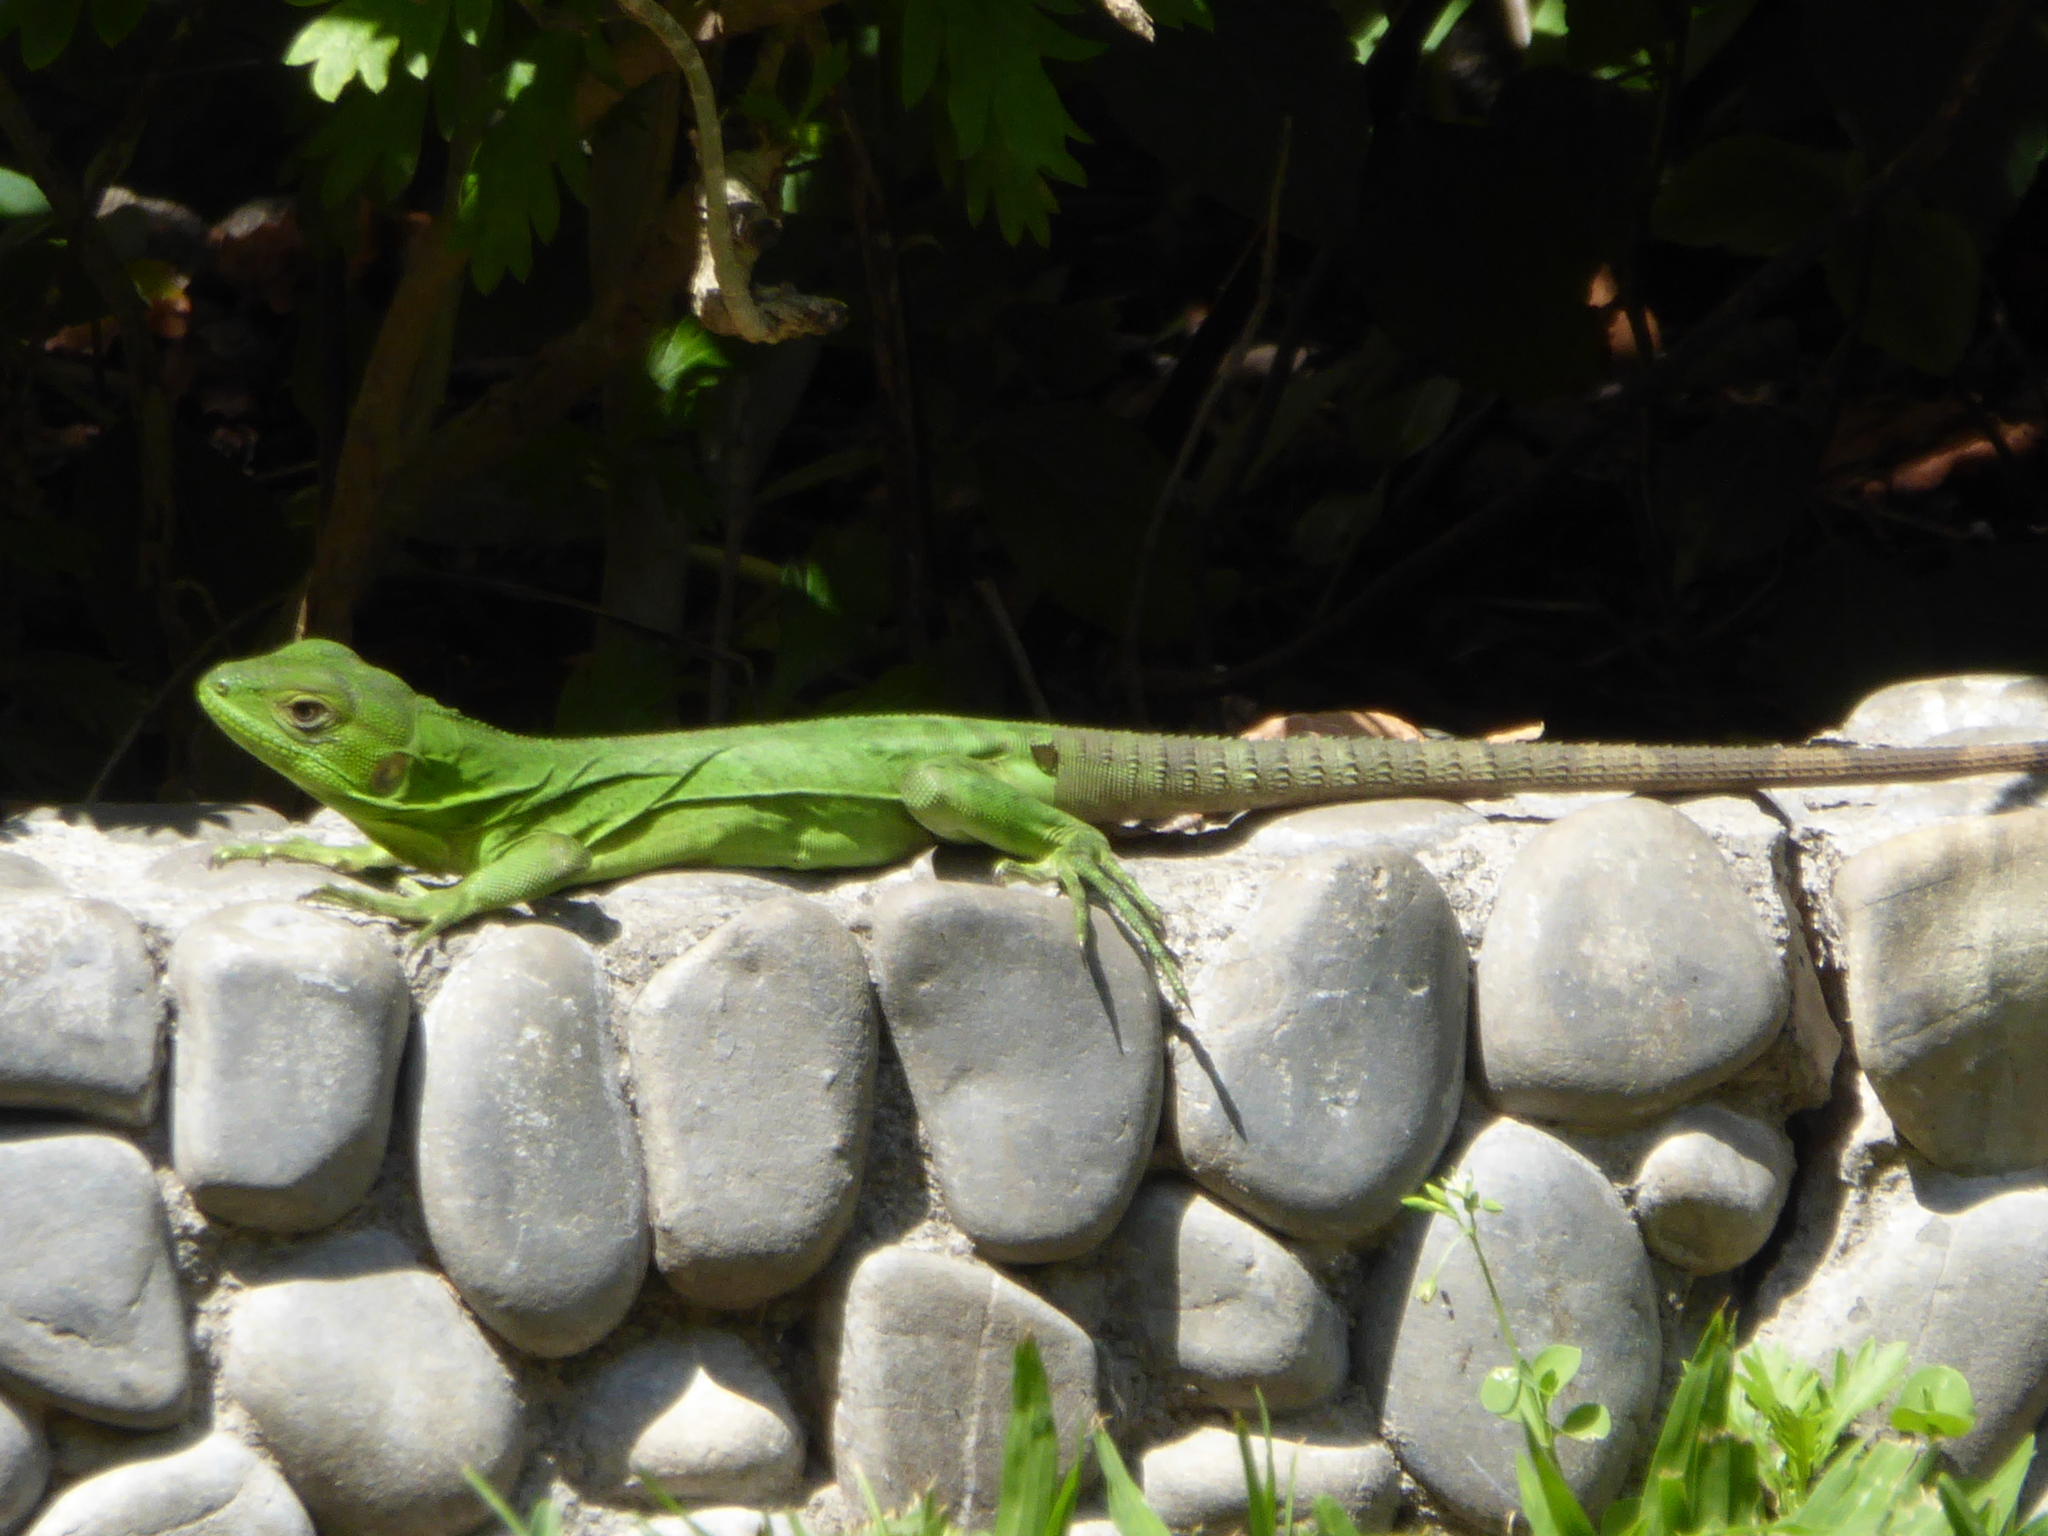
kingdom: Animalia
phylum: Chordata
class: Squamata
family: Iguanidae
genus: Ctenosaura
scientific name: Ctenosaura pectinata
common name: Guerreran spiny-tailed iguana
